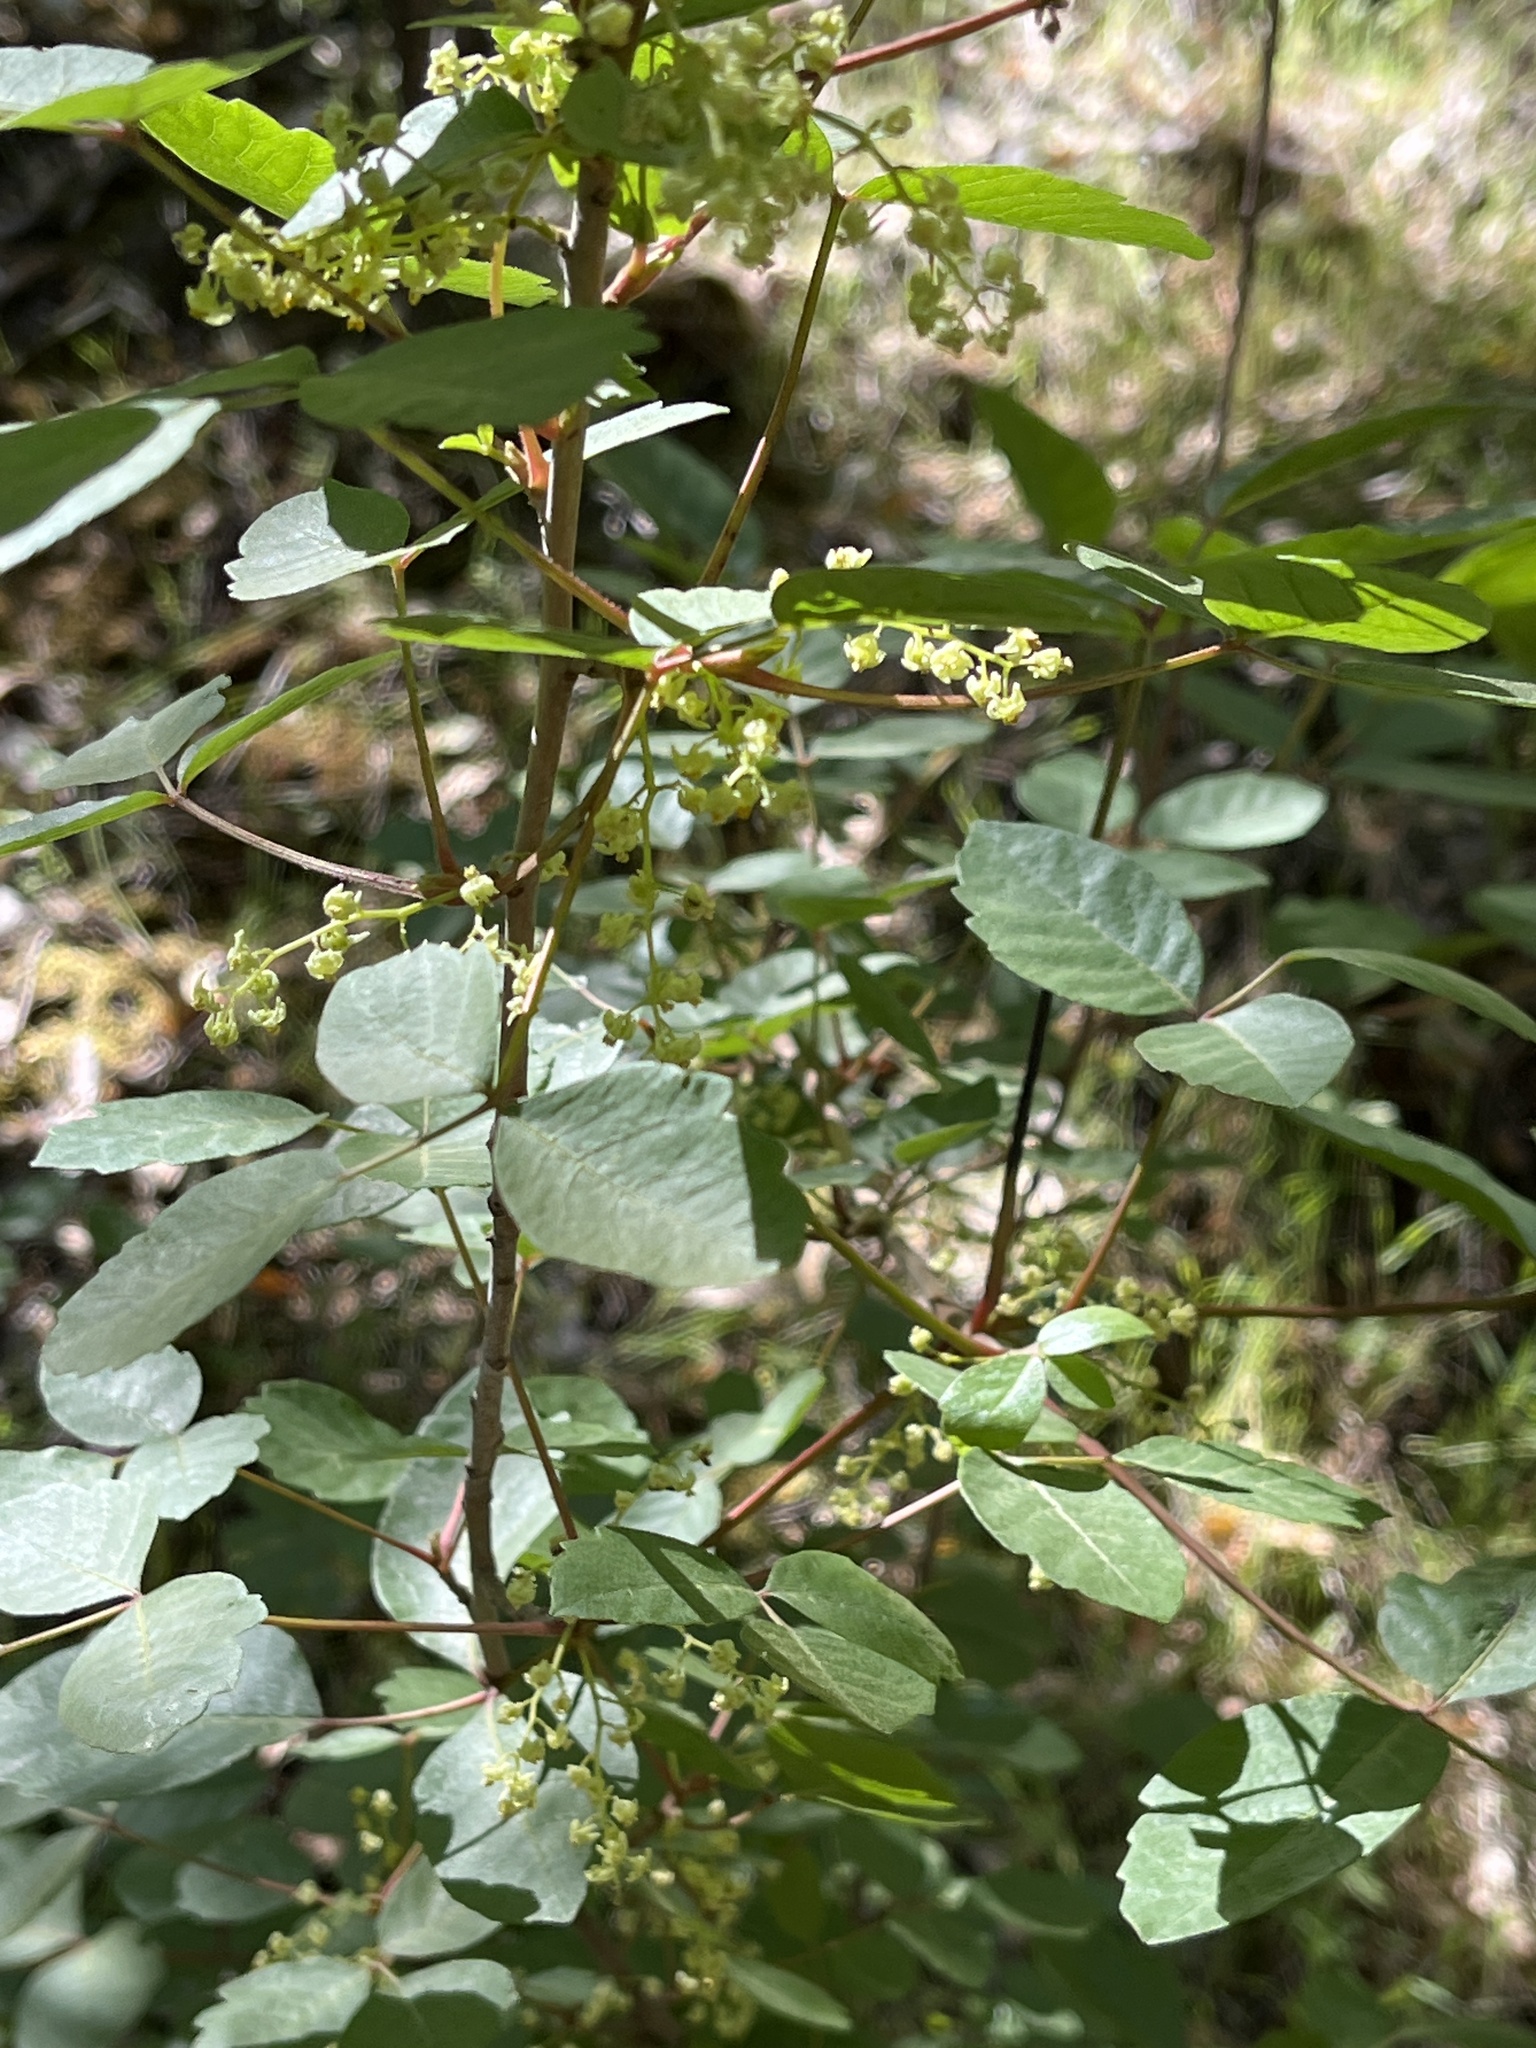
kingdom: Plantae
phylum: Tracheophyta
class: Magnoliopsida
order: Sapindales
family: Anacardiaceae
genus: Toxicodendron
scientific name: Toxicodendron diversilobum
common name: Pacific poison-oak
